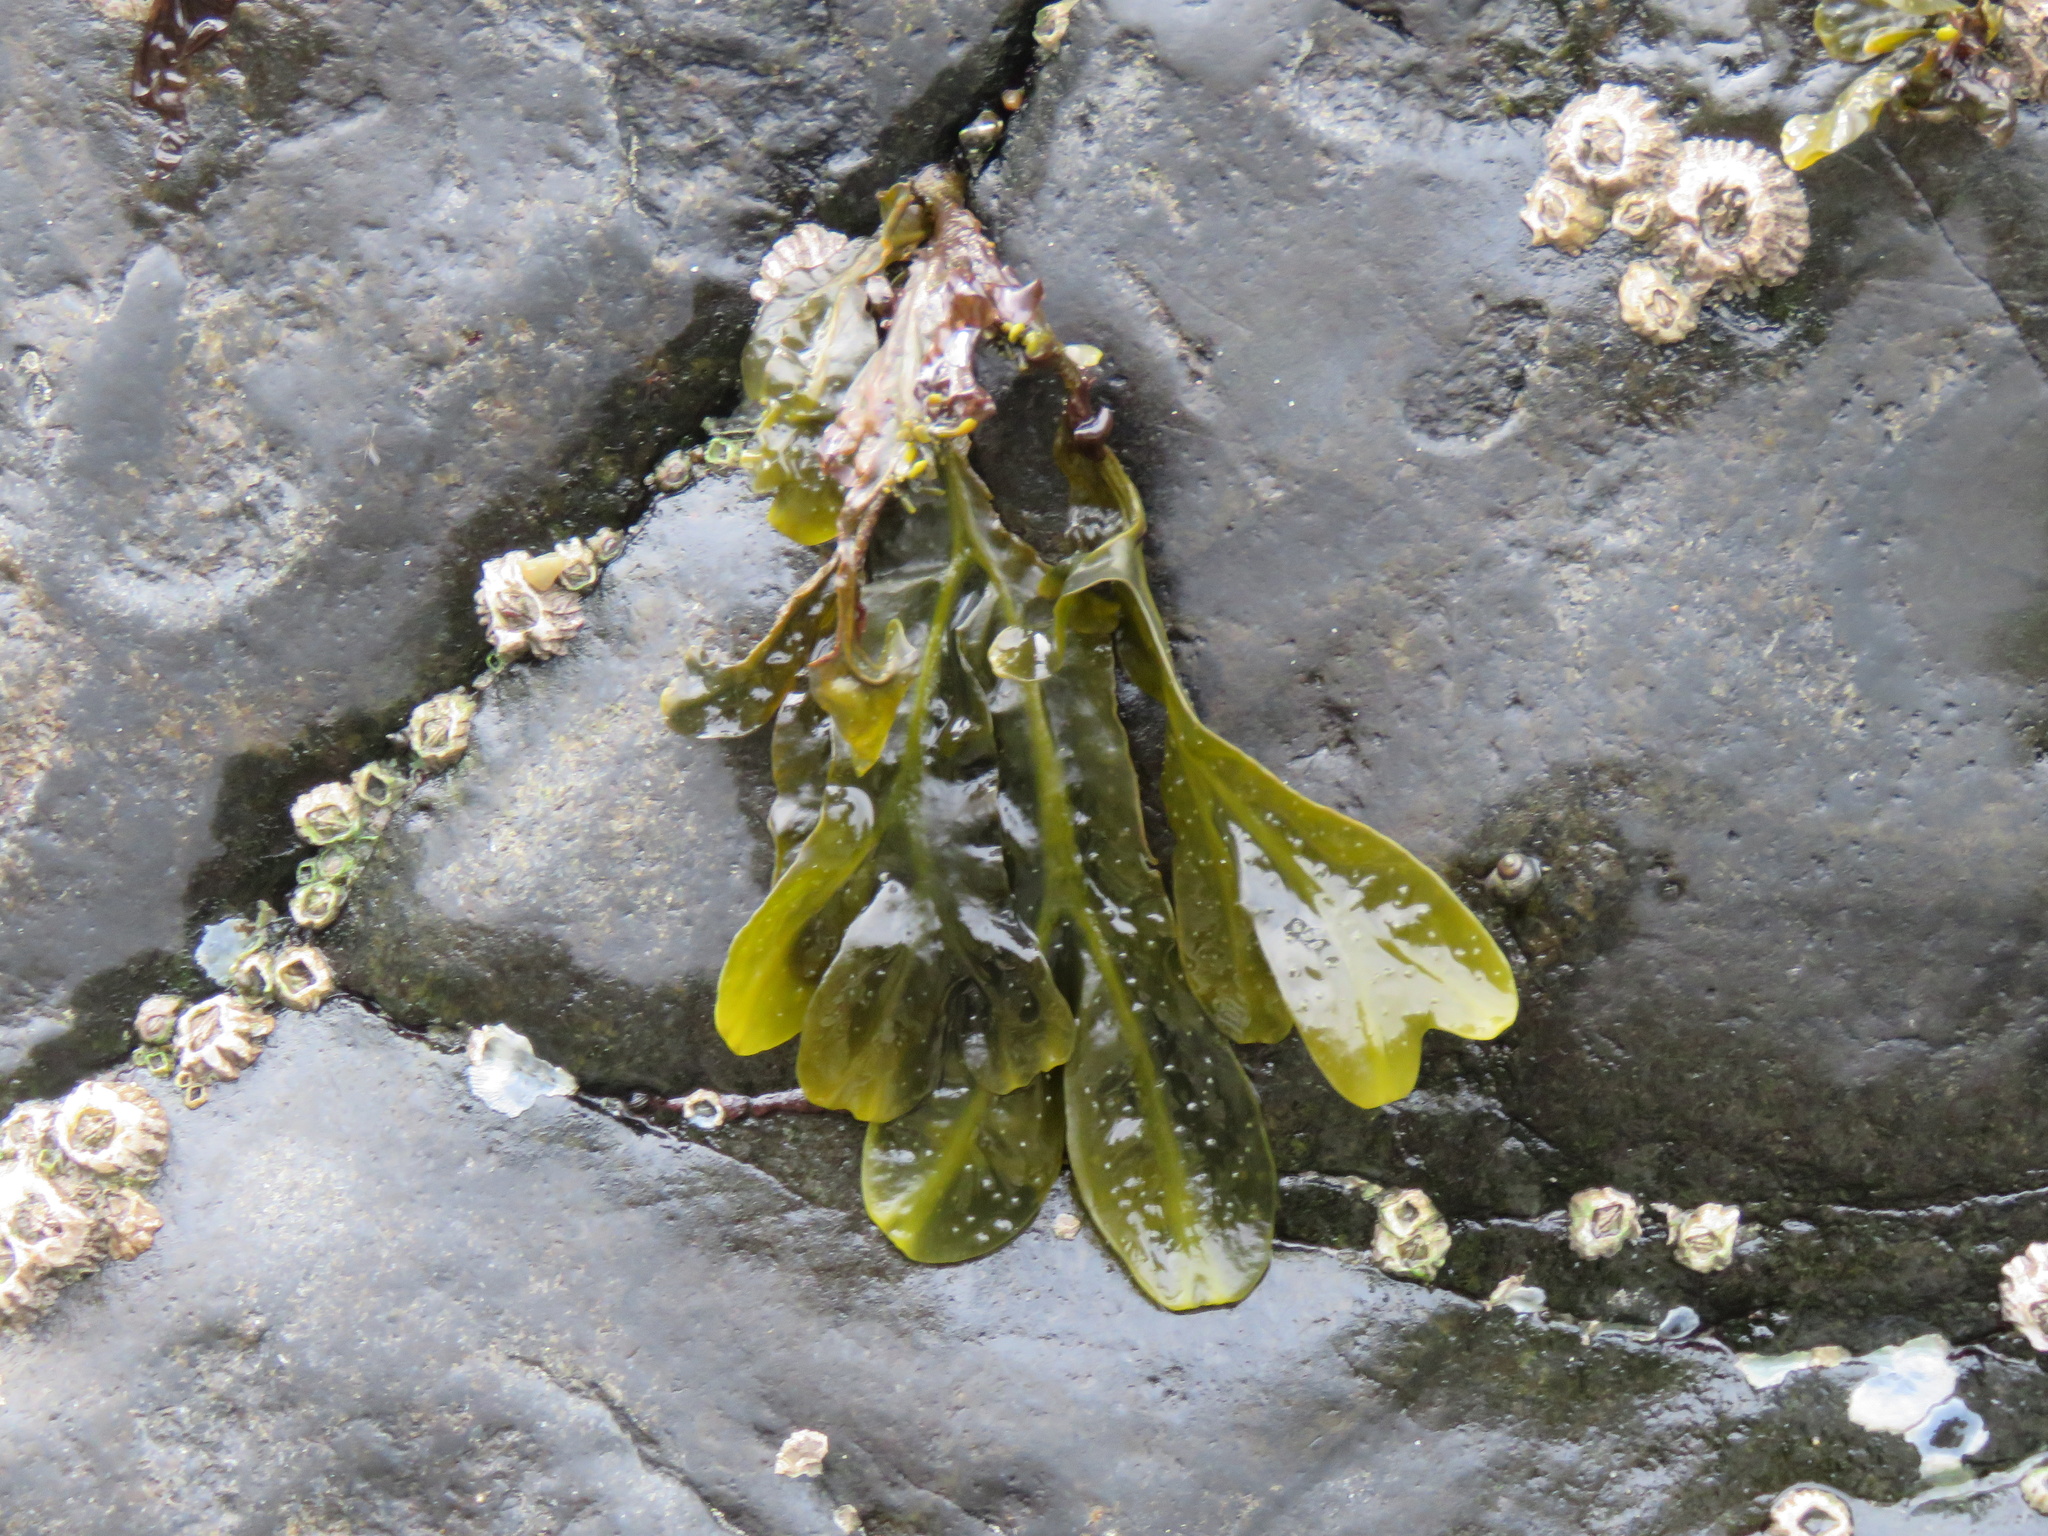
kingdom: Chromista
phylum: Ochrophyta
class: Phaeophyceae
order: Fucales
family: Fucaceae
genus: Fucus
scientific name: Fucus distichus
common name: Rockweed
